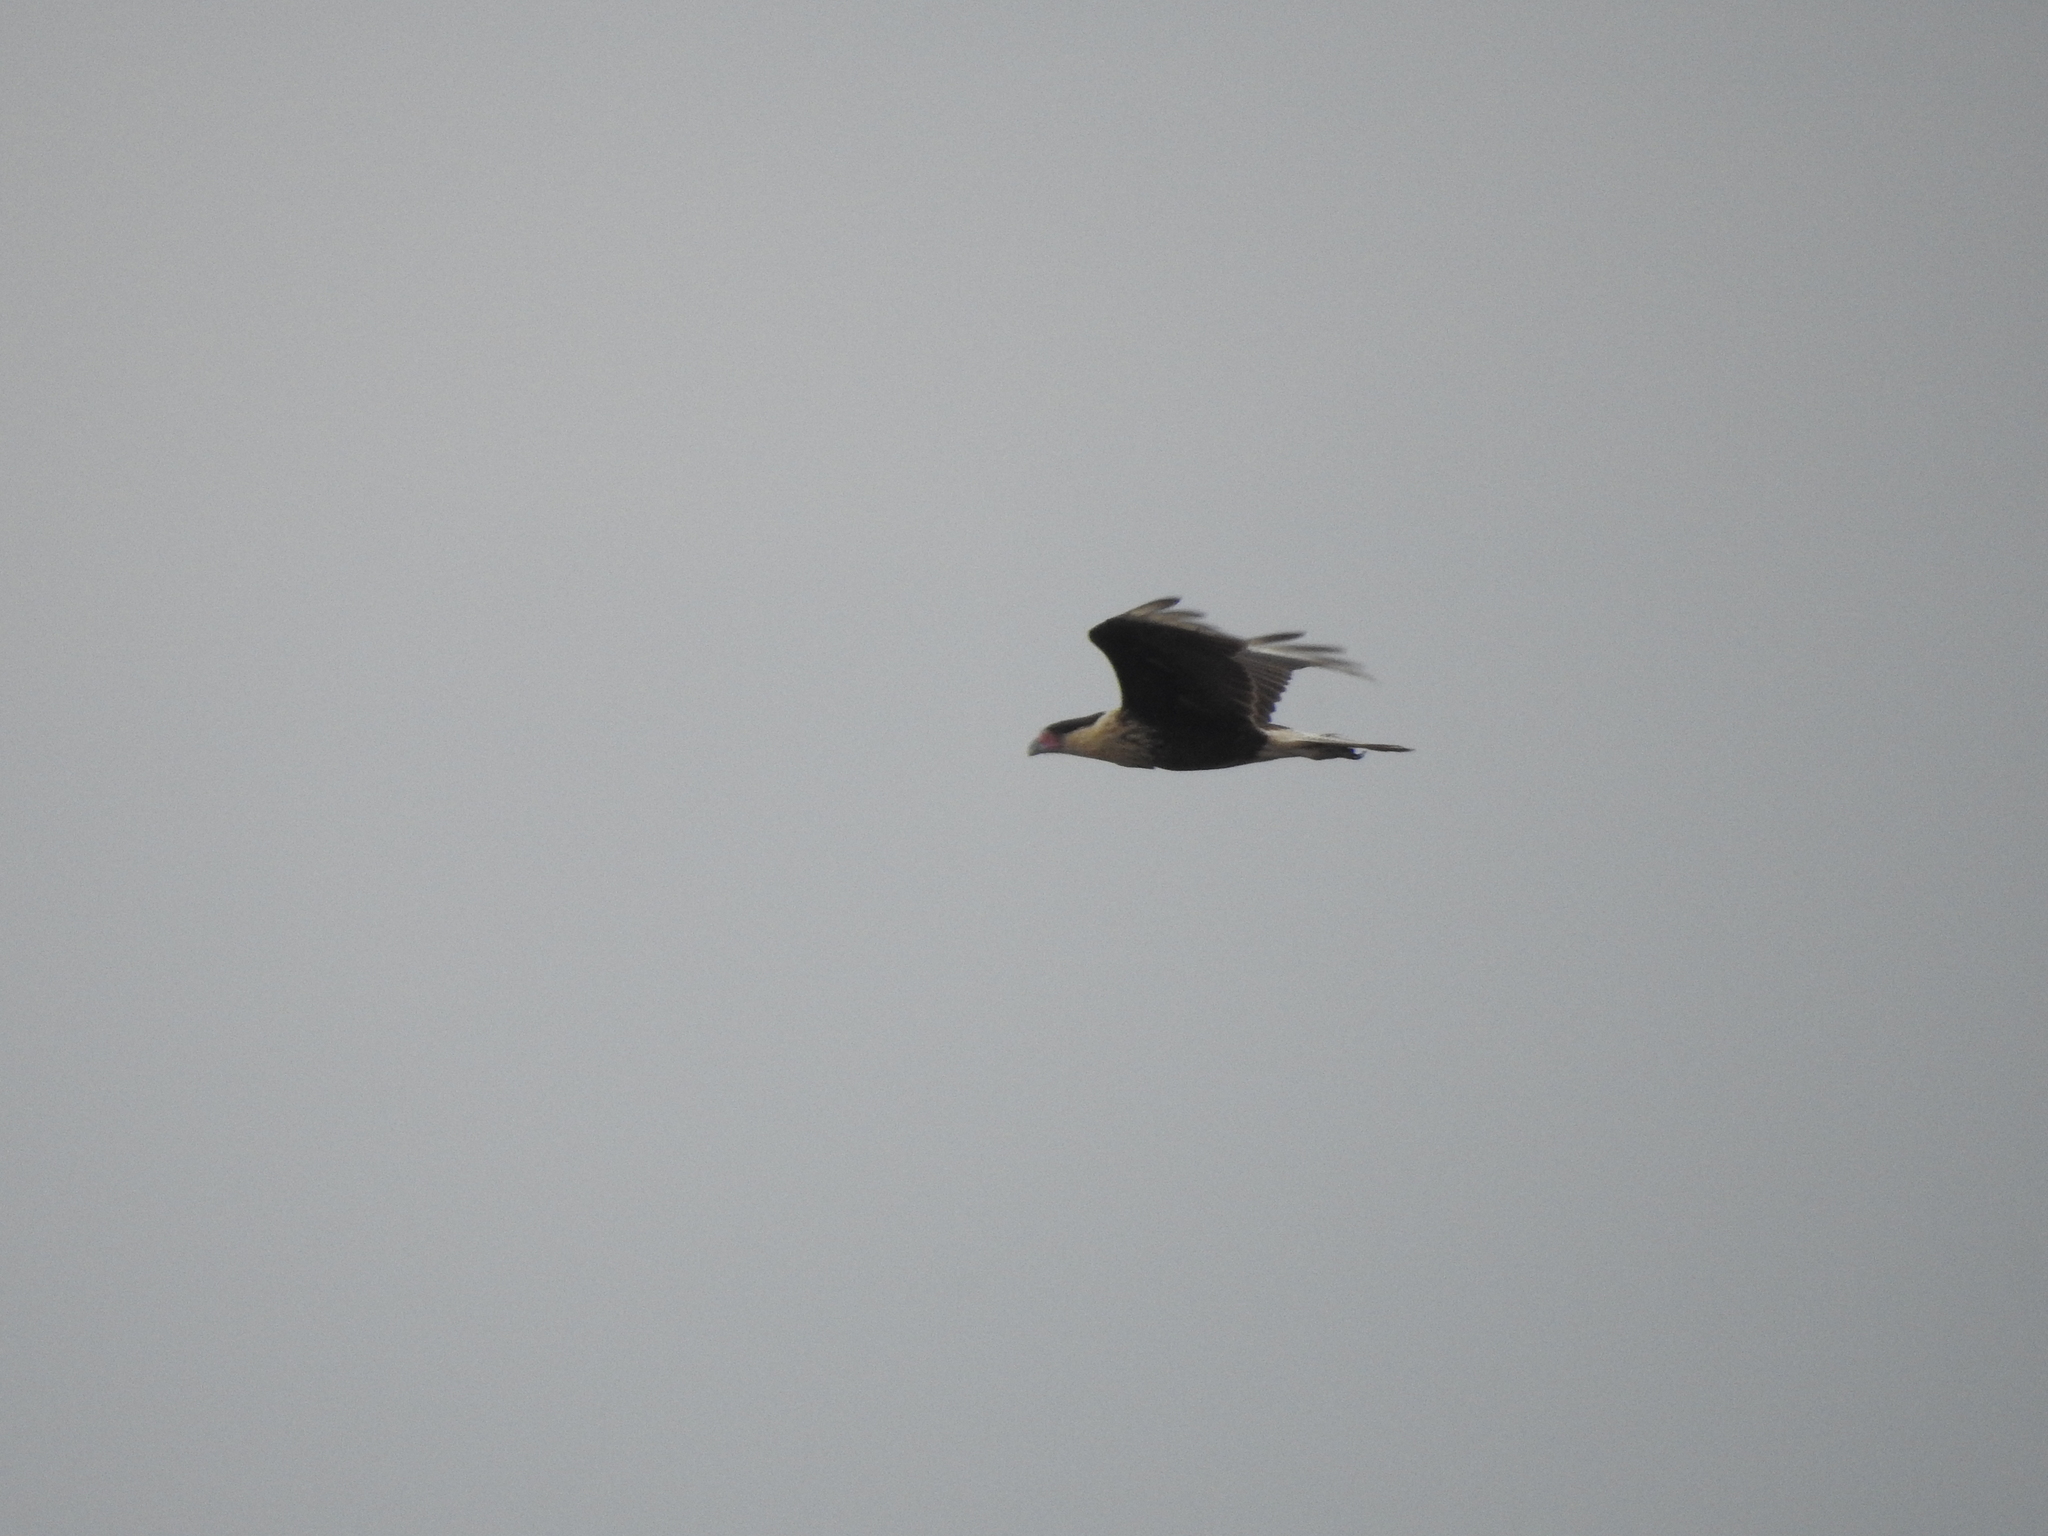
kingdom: Animalia
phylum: Chordata
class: Aves
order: Falconiformes
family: Falconidae
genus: Caracara
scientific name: Caracara plancus
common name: Southern caracara
